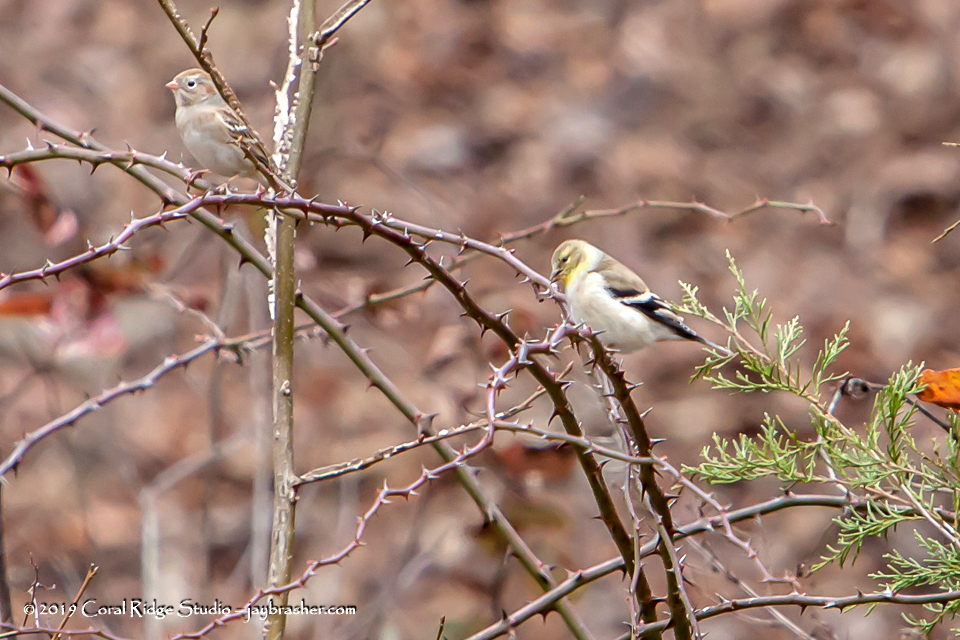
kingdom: Animalia
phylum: Chordata
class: Aves
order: Passeriformes
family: Fringillidae
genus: Spinus
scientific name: Spinus tristis
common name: American goldfinch
